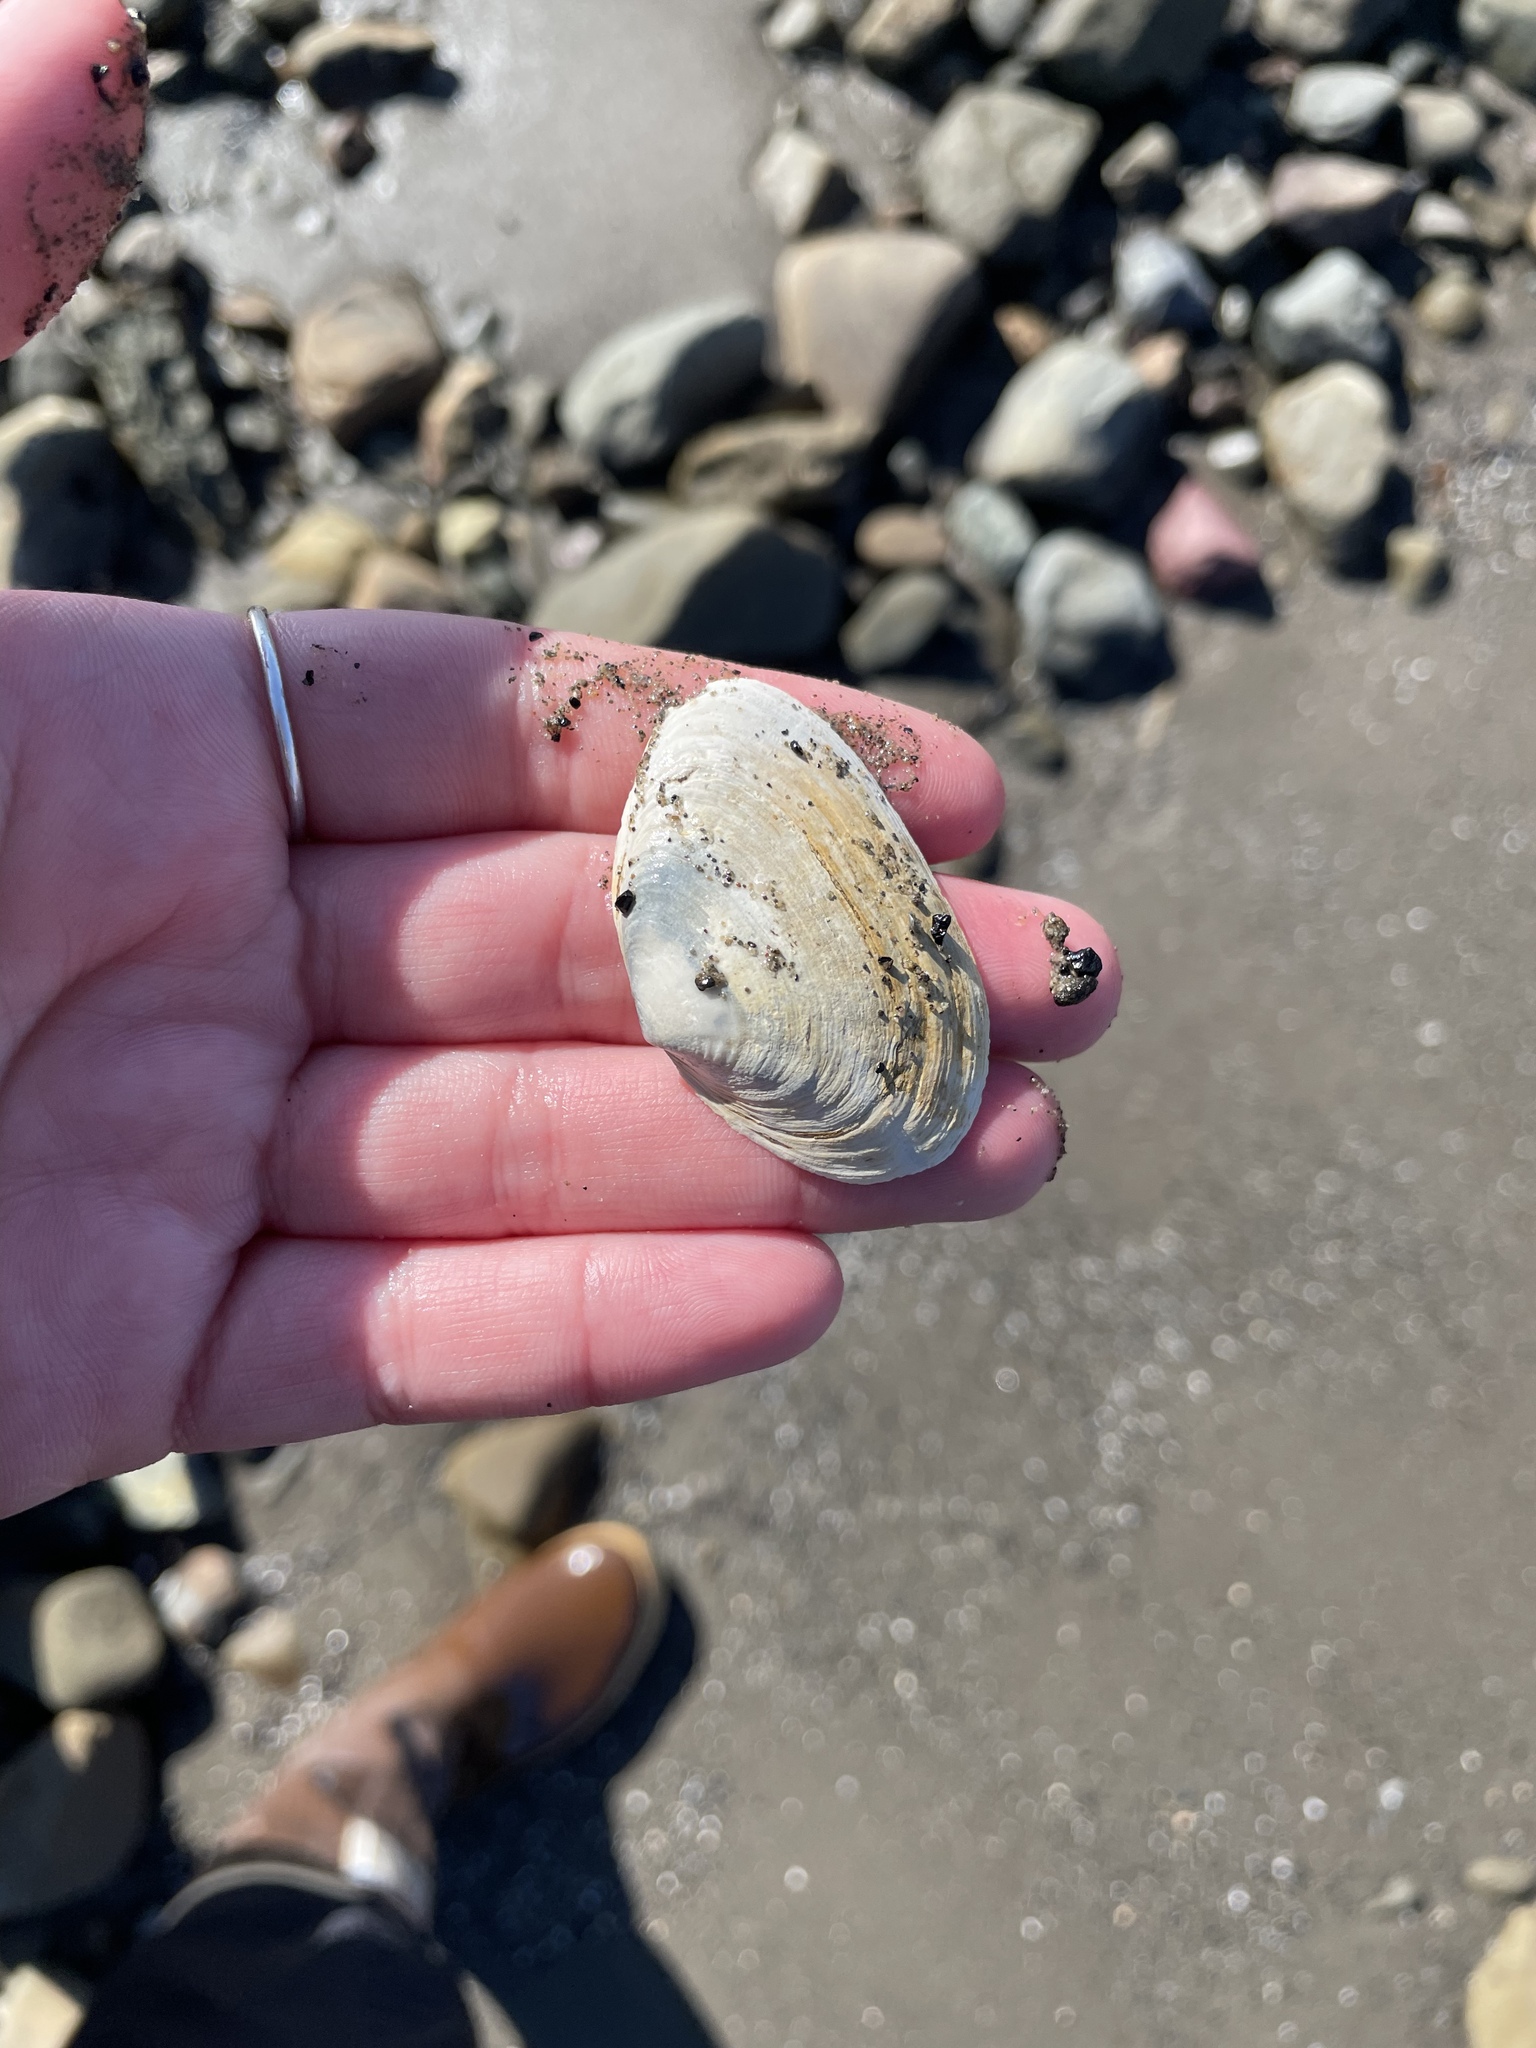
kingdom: Animalia
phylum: Mollusca
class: Bivalvia
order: Myida
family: Myidae
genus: Mya
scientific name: Mya arenaria
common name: Soft-shelled clam
